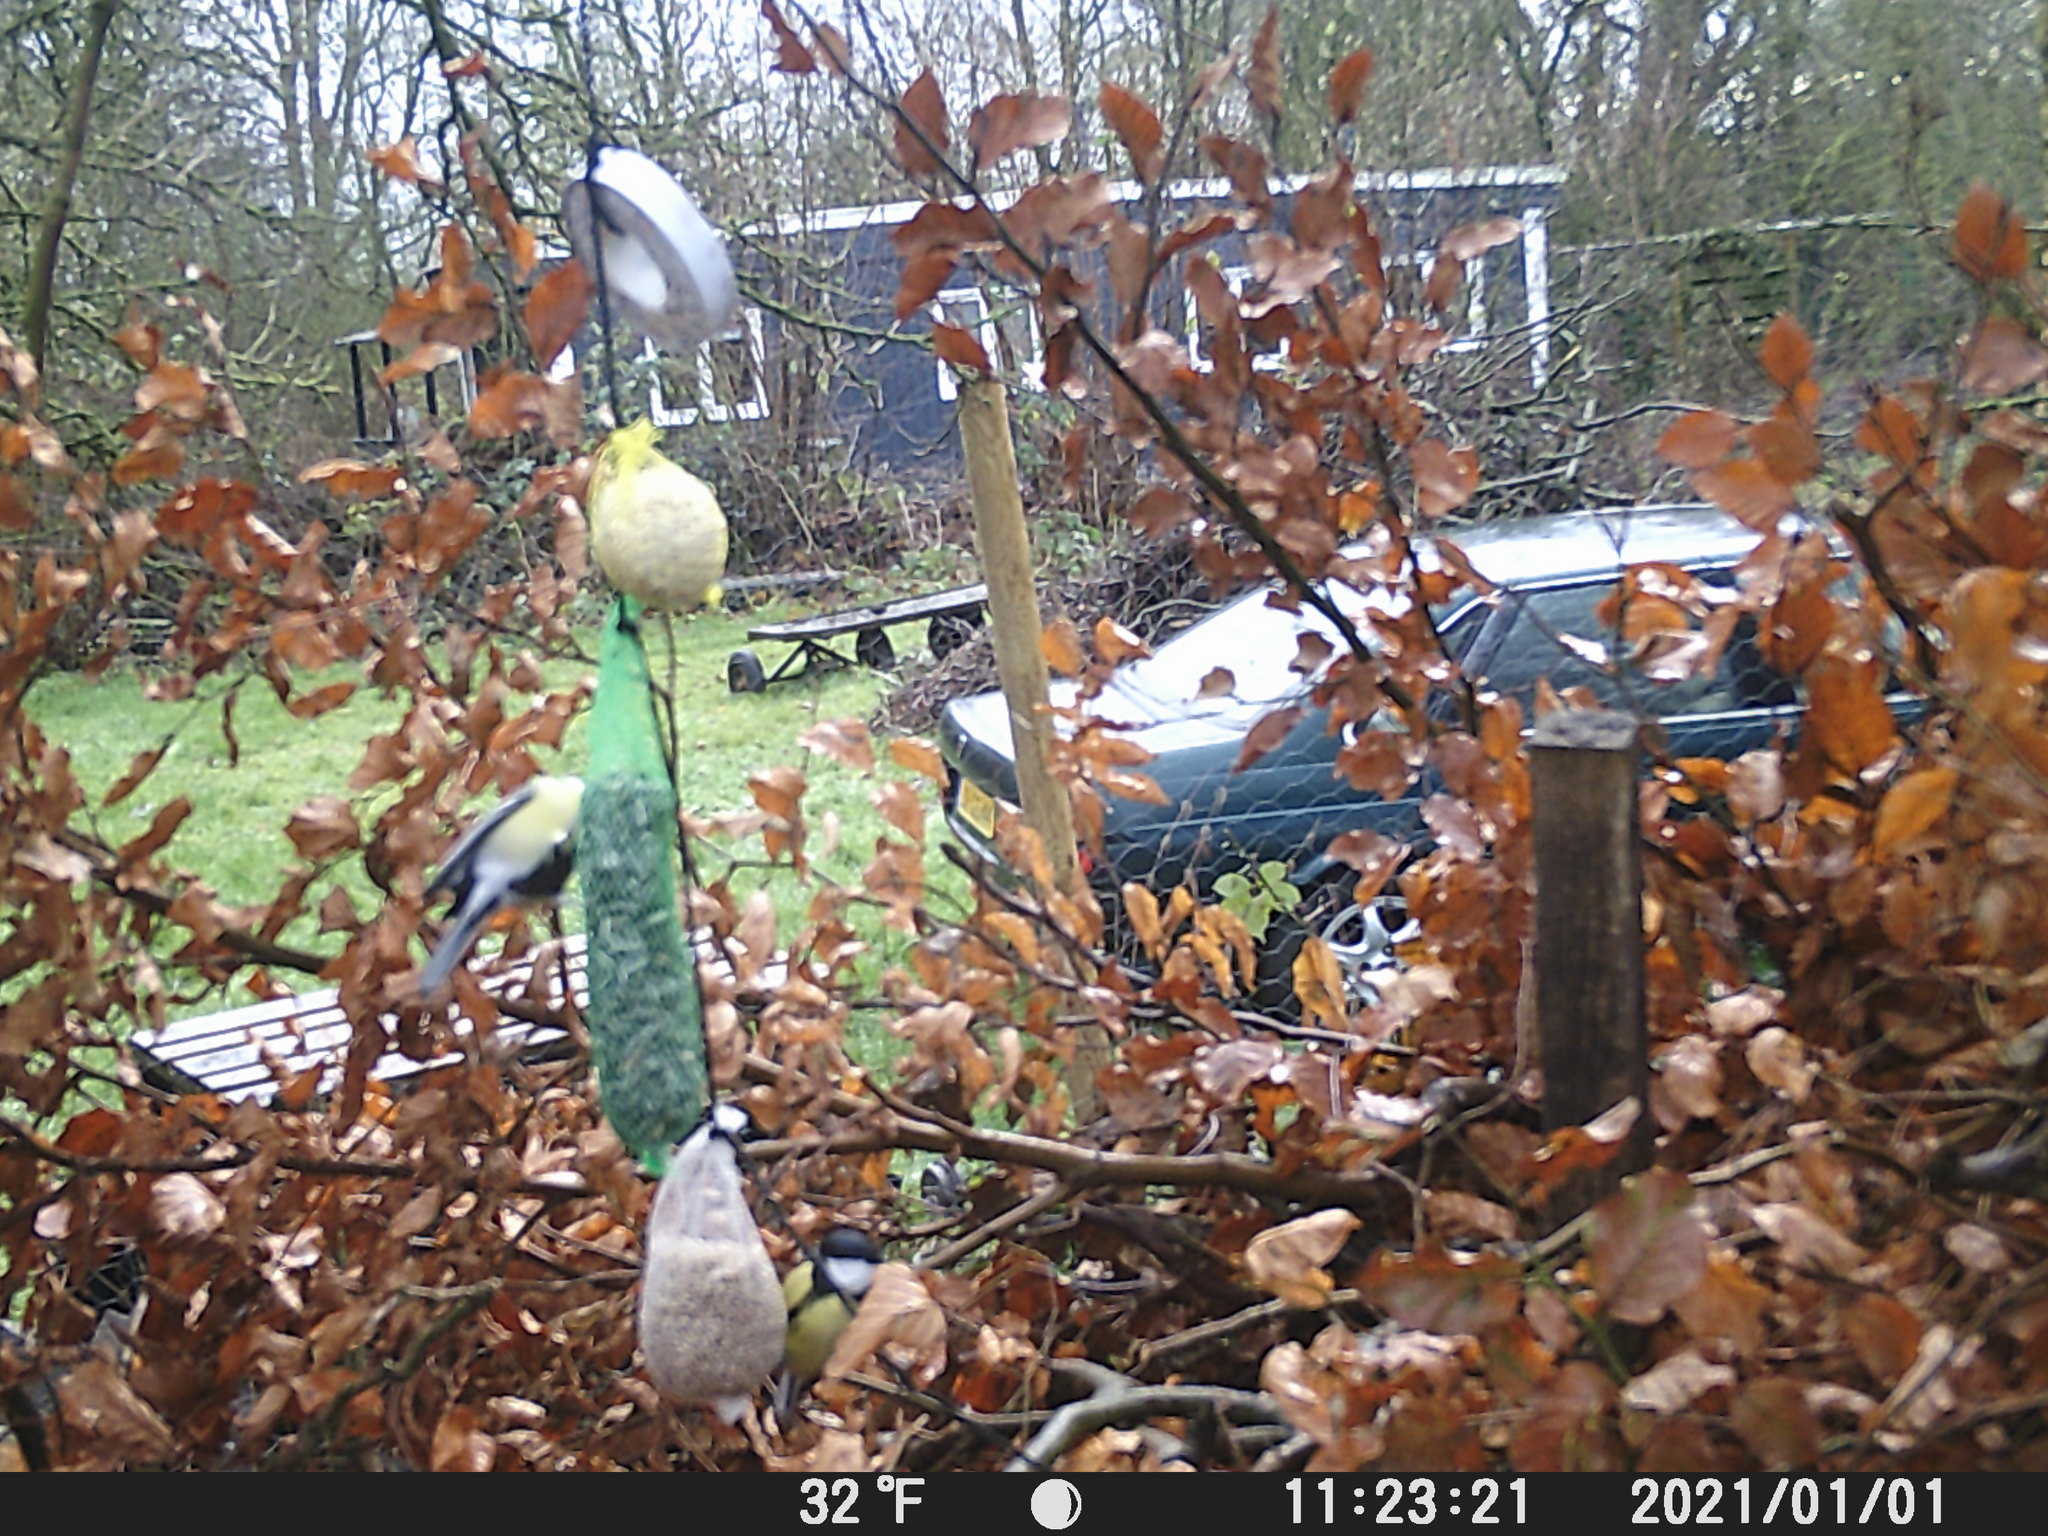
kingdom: Animalia
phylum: Chordata
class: Aves
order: Passeriformes
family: Paridae
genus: Parus
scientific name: Parus major
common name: Great tit
